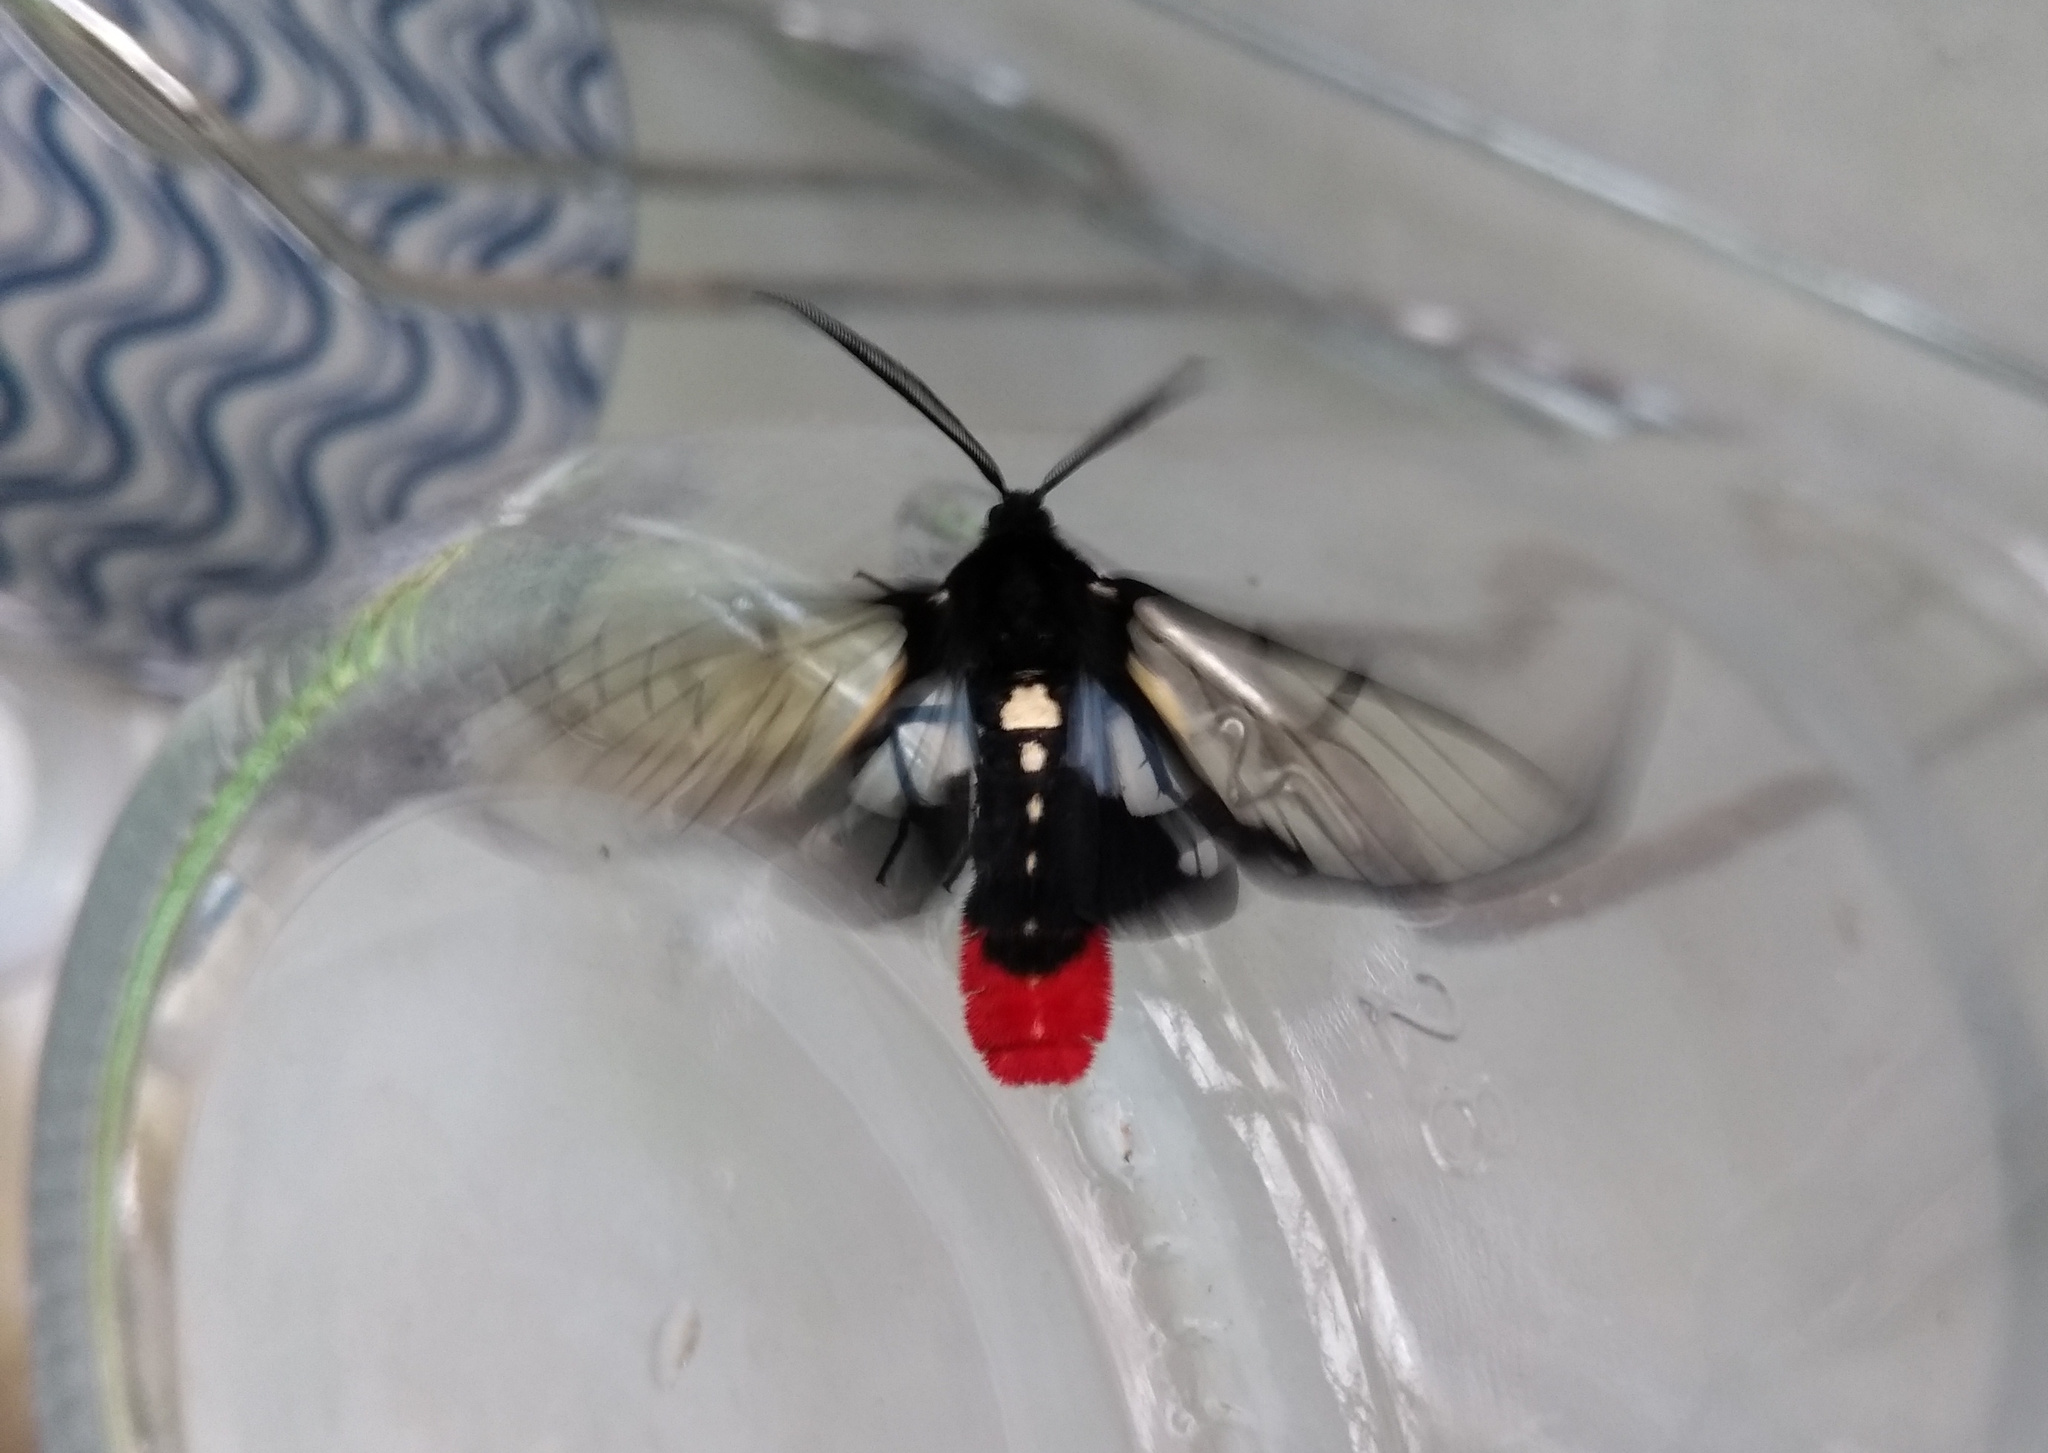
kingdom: Animalia
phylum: Arthropoda
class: Insecta
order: Lepidoptera
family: Erebidae
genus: Aethria
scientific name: Aethria melanobasis
